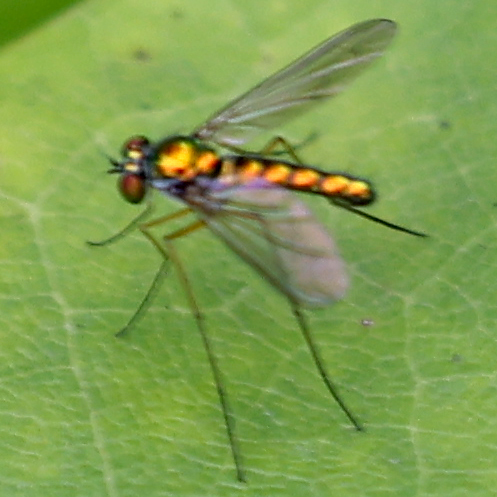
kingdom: Animalia
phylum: Arthropoda
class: Insecta
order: Diptera
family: Dolichopodidae
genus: Amblypsilopus
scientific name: Amblypsilopus scintillans
